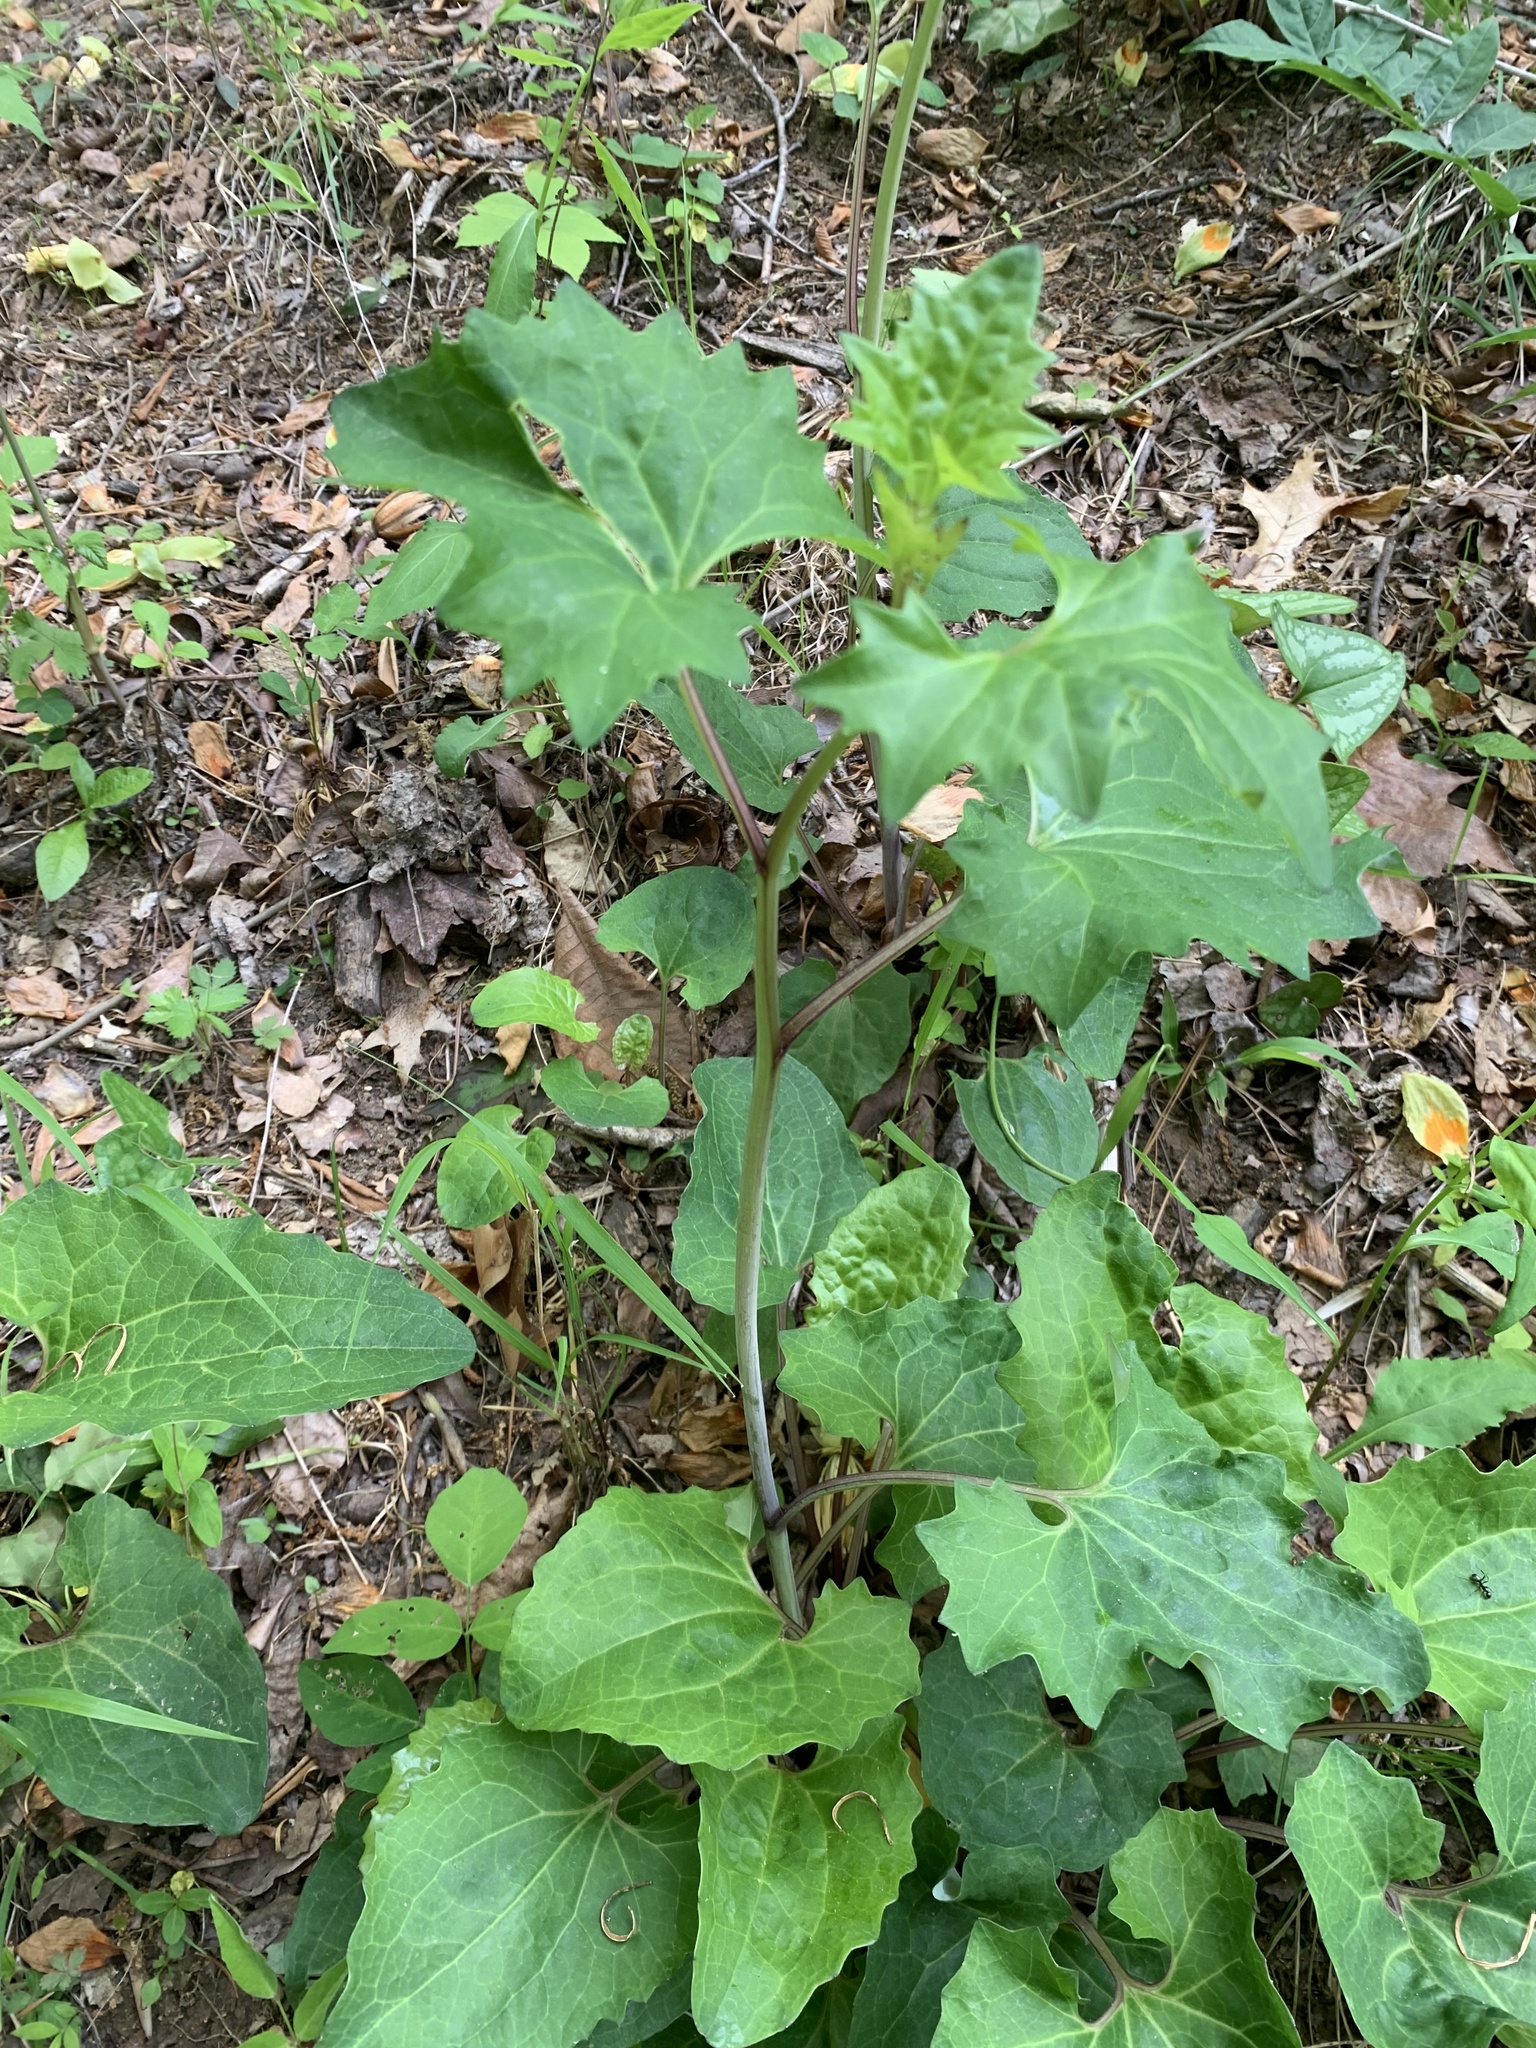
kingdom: Plantae
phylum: Tracheophyta
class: Magnoliopsida
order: Asterales
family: Asteraceae
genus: Arnoglossum
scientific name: Arnoglossum atriplicifolium
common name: Pale indian-plantain
